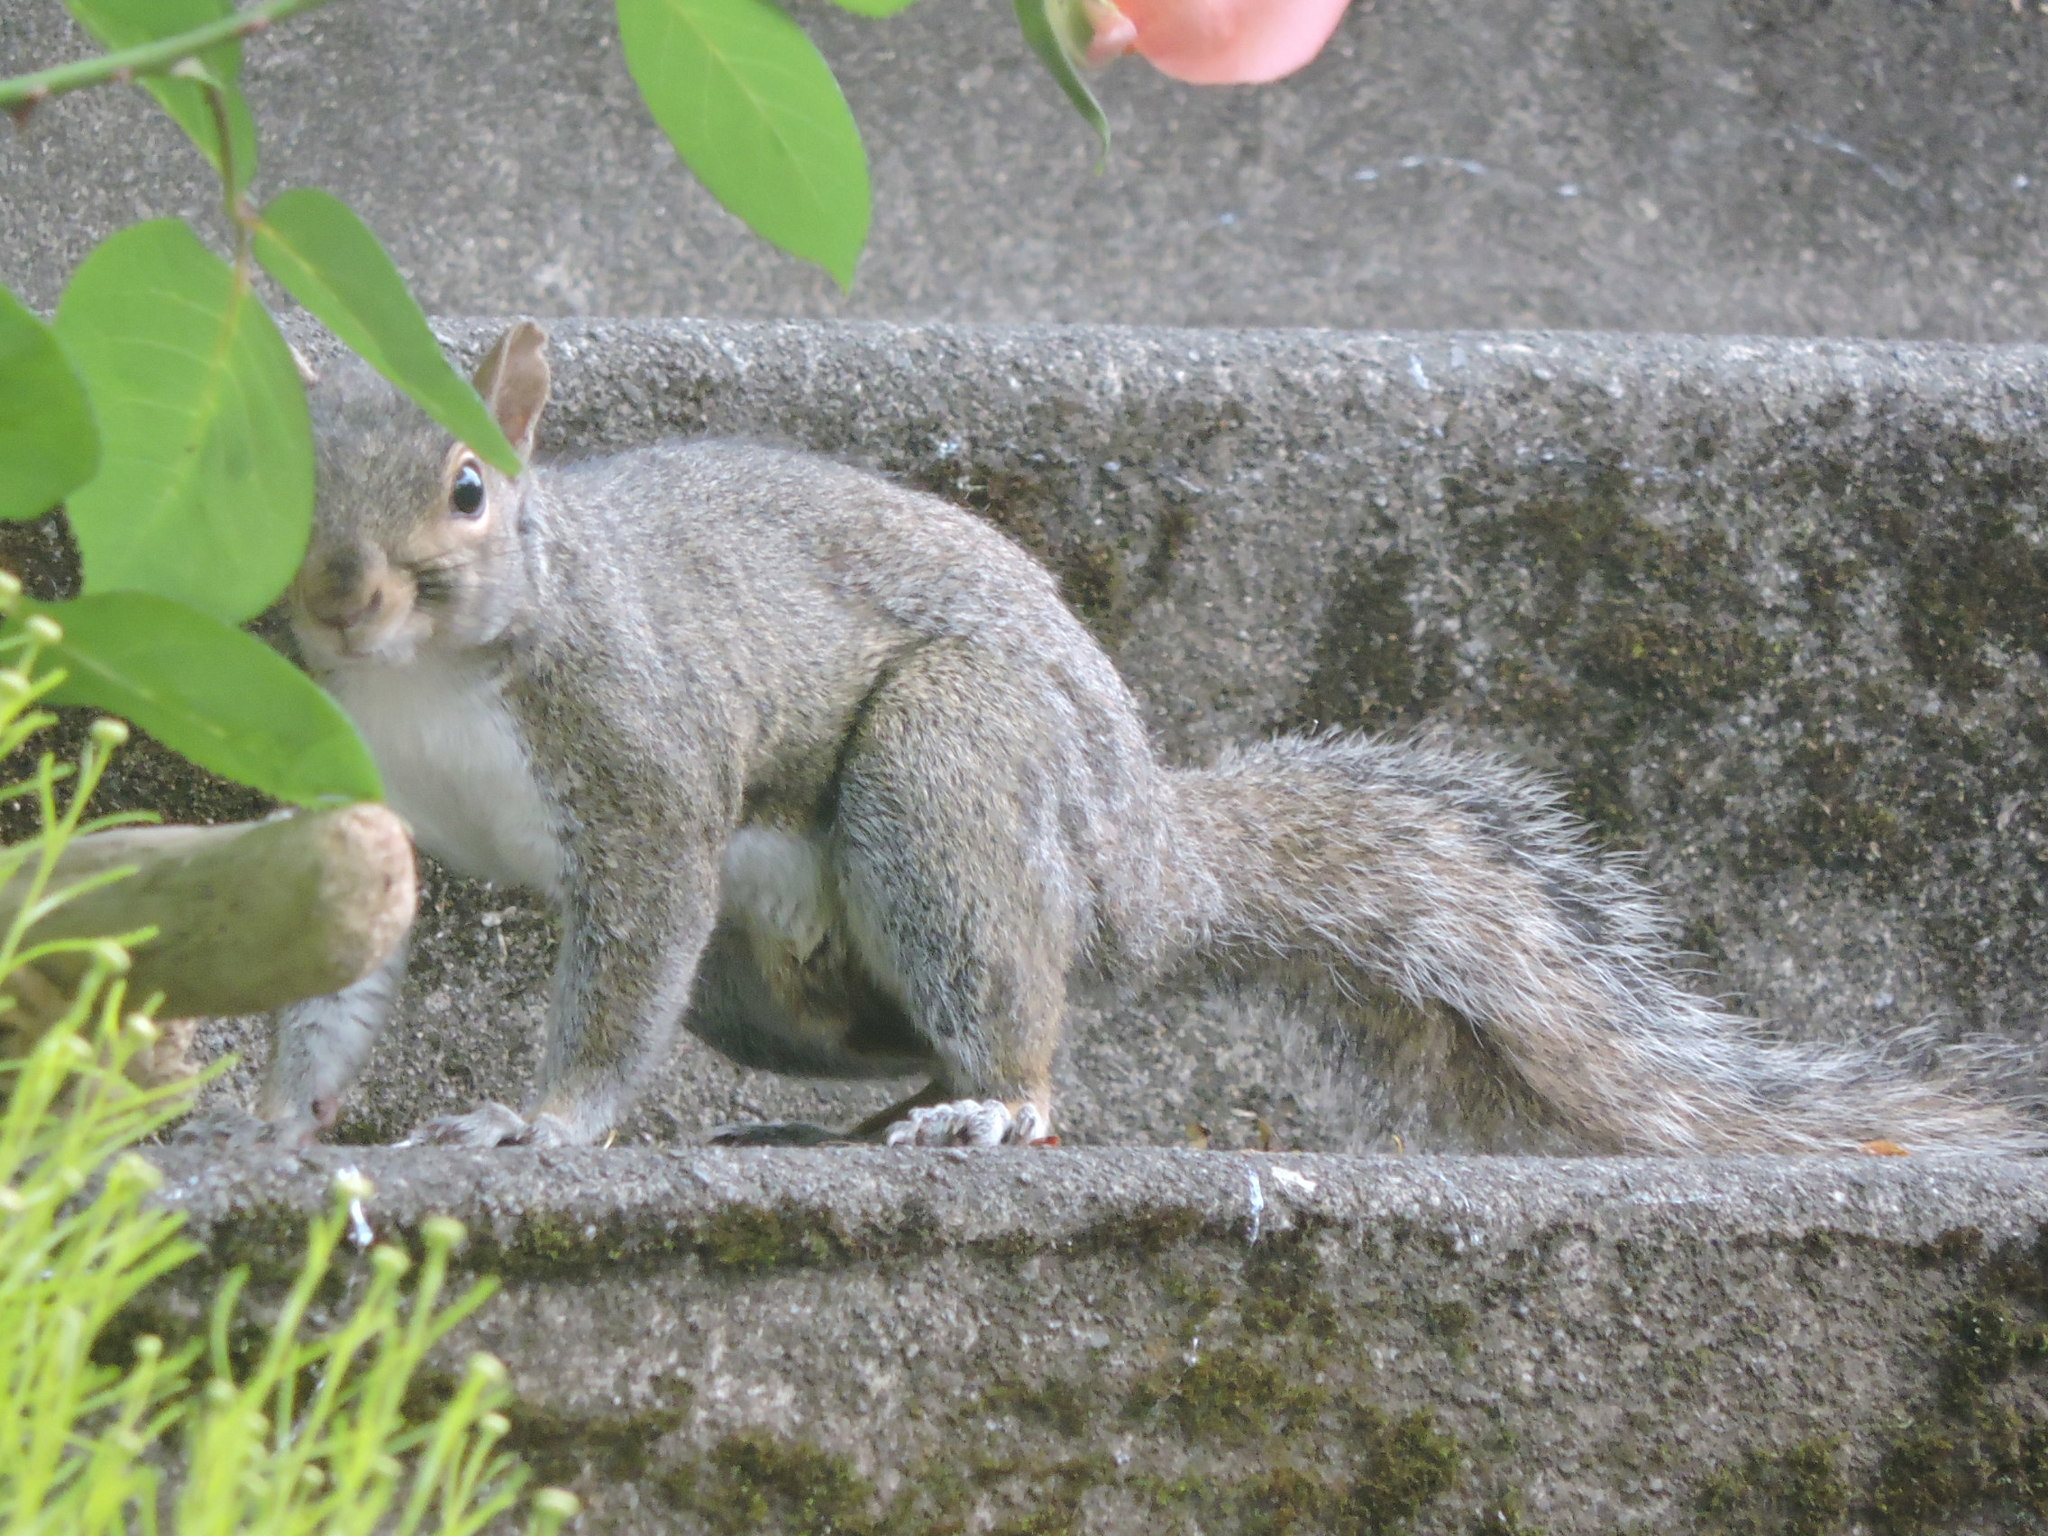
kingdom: Animalia
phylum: Chordata
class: Mammalia
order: Rodentia
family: Sciuridae
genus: Sciurus
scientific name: Sciurus carolinensis
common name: Eastern gray squirrel
